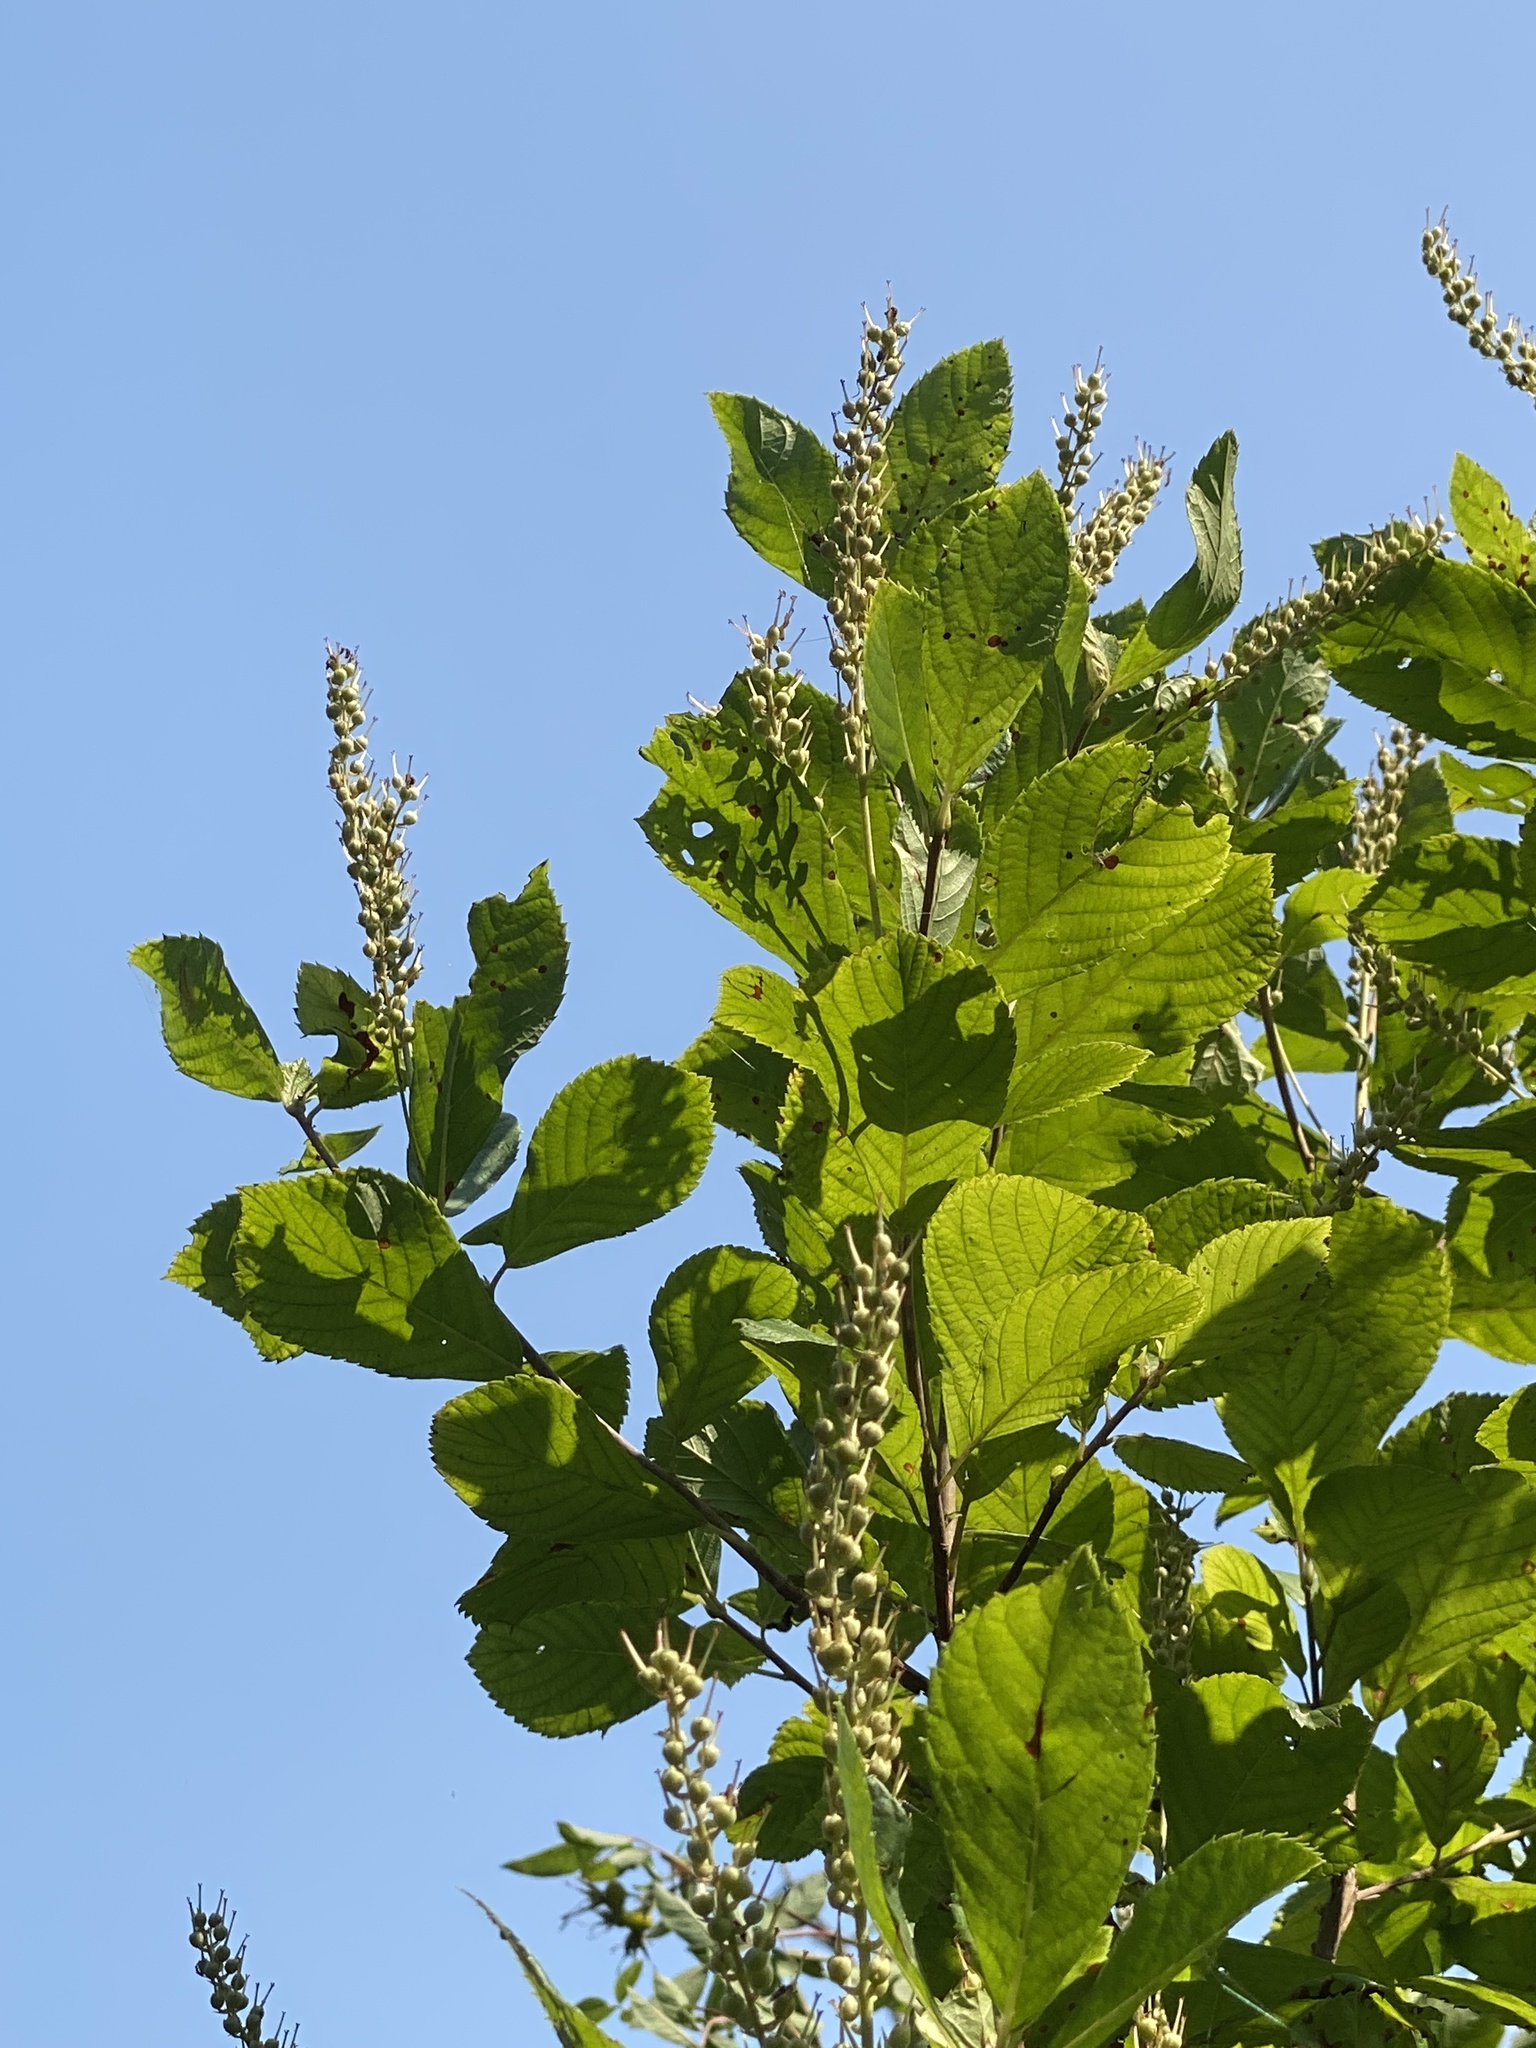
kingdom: Plantae
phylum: Tracheophyta
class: Magnoliopsida
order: Ericales
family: Clethraceae
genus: Clethra
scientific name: Clethra alnifolia
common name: Sweet pepperbush
